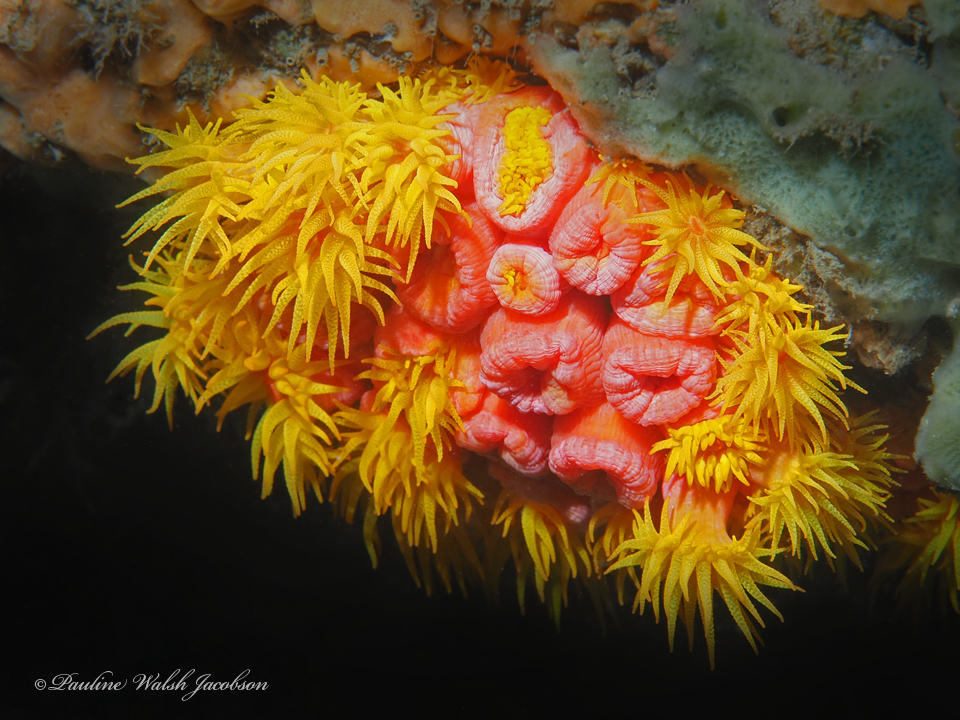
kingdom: Animalia
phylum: Cnidaria
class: Anthozoa
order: Scleractinia
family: Dendrophylliidae
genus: Tubastraea
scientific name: Tubastraea coccinea
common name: Orange cup coral
